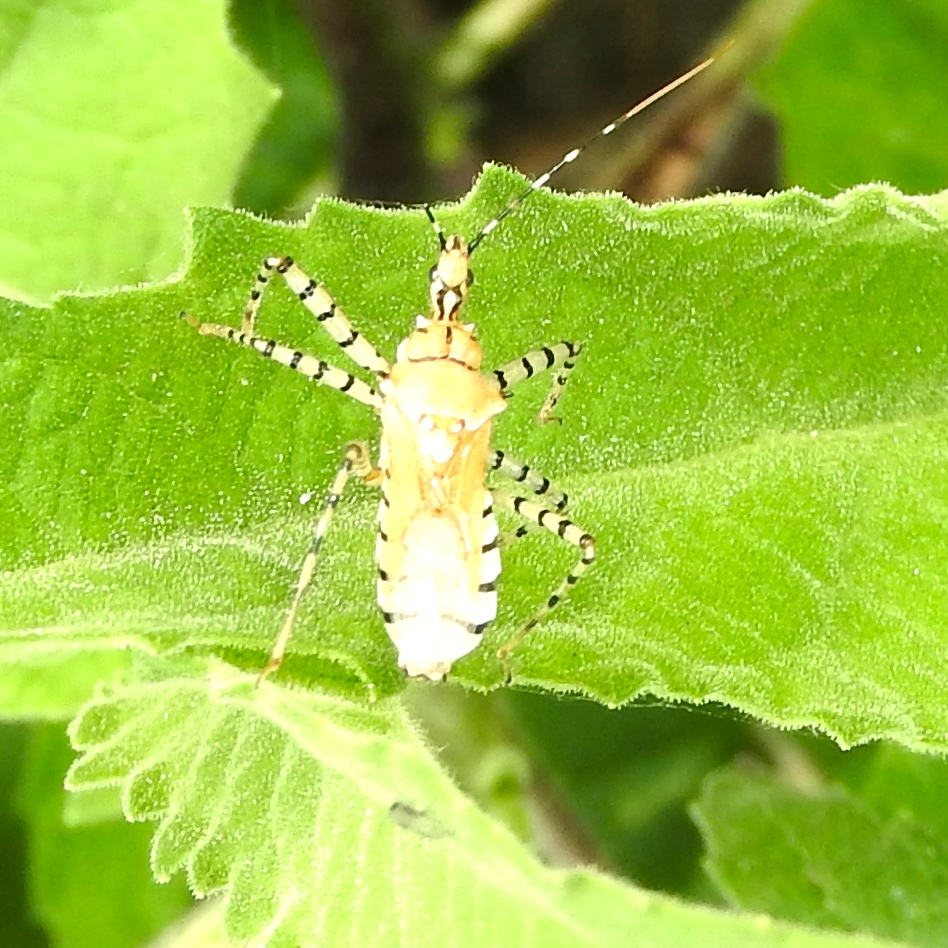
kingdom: Animalia
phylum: Arthropoda
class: Insecta
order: Hemiptera
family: Reduviidae
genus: Pselliopus
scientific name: Pselliopus
